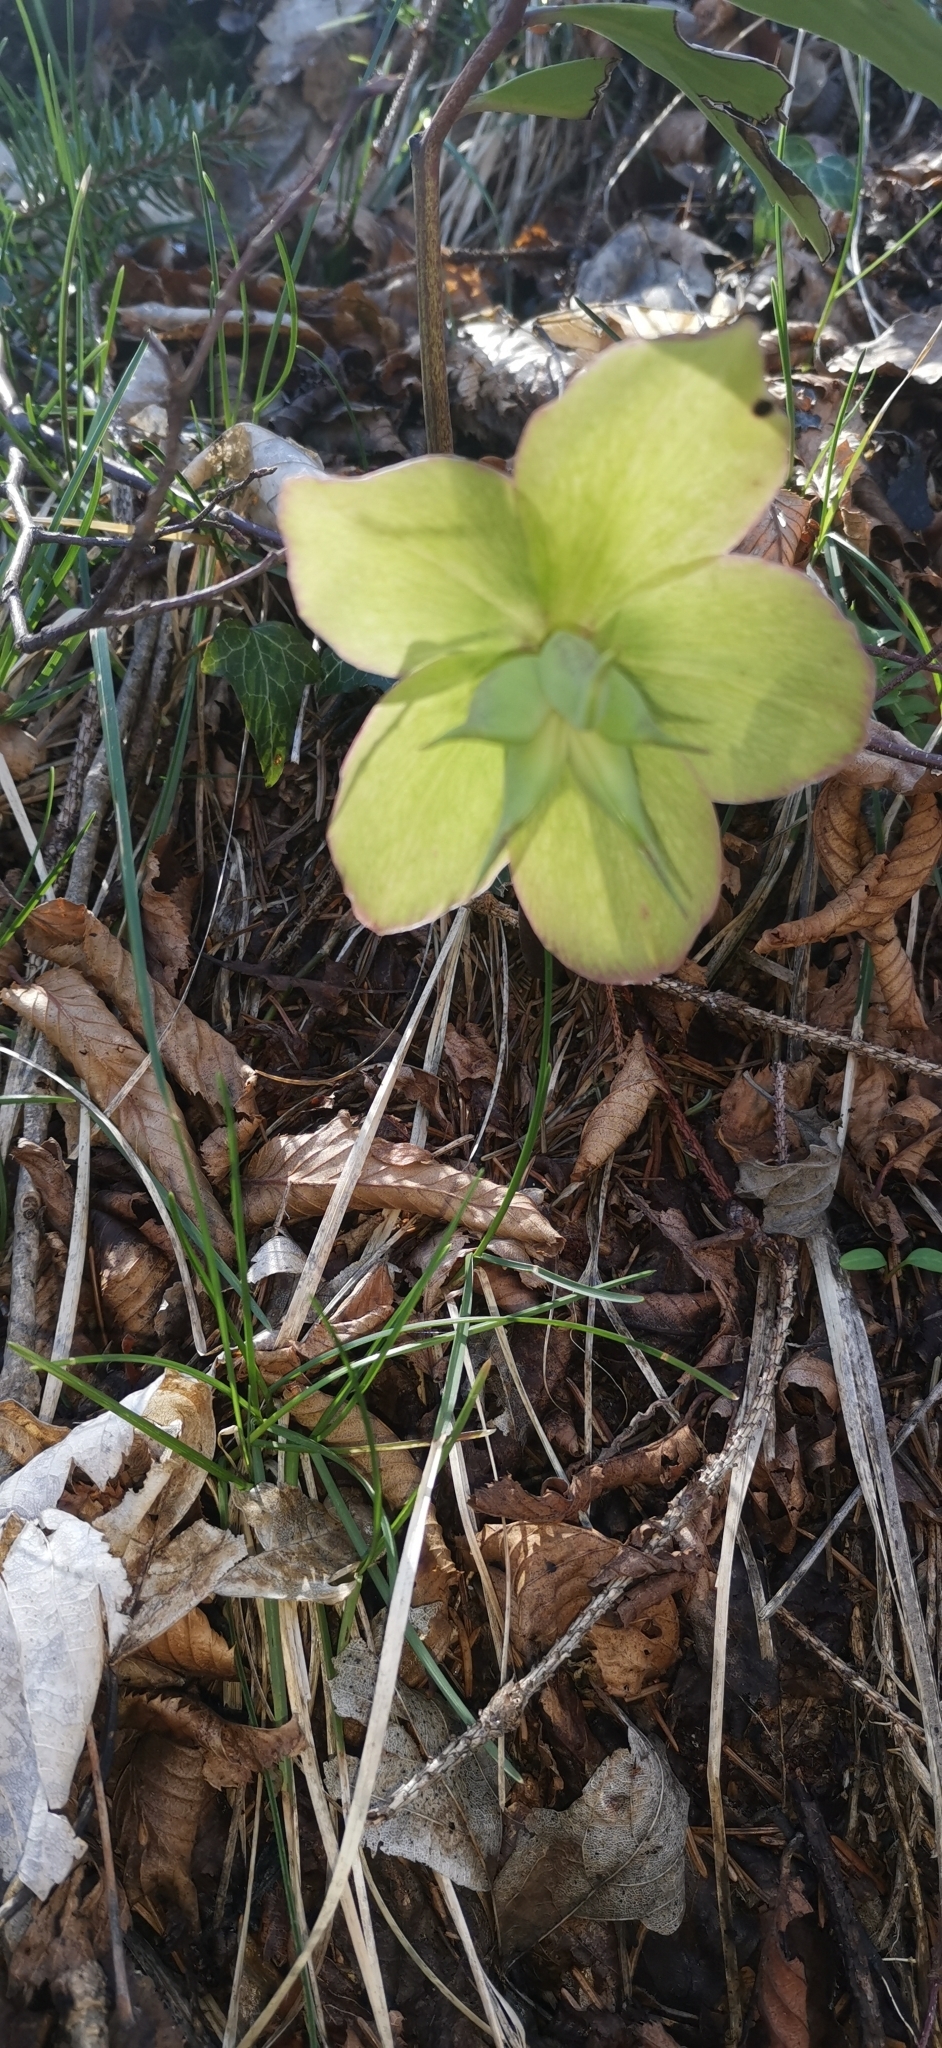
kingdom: Plantae
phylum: Tracheophyta
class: Magnoliopsida
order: Ranunculales
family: Ranunculaceae
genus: Helleborus
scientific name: Helleborus niger
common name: Black hellebore
